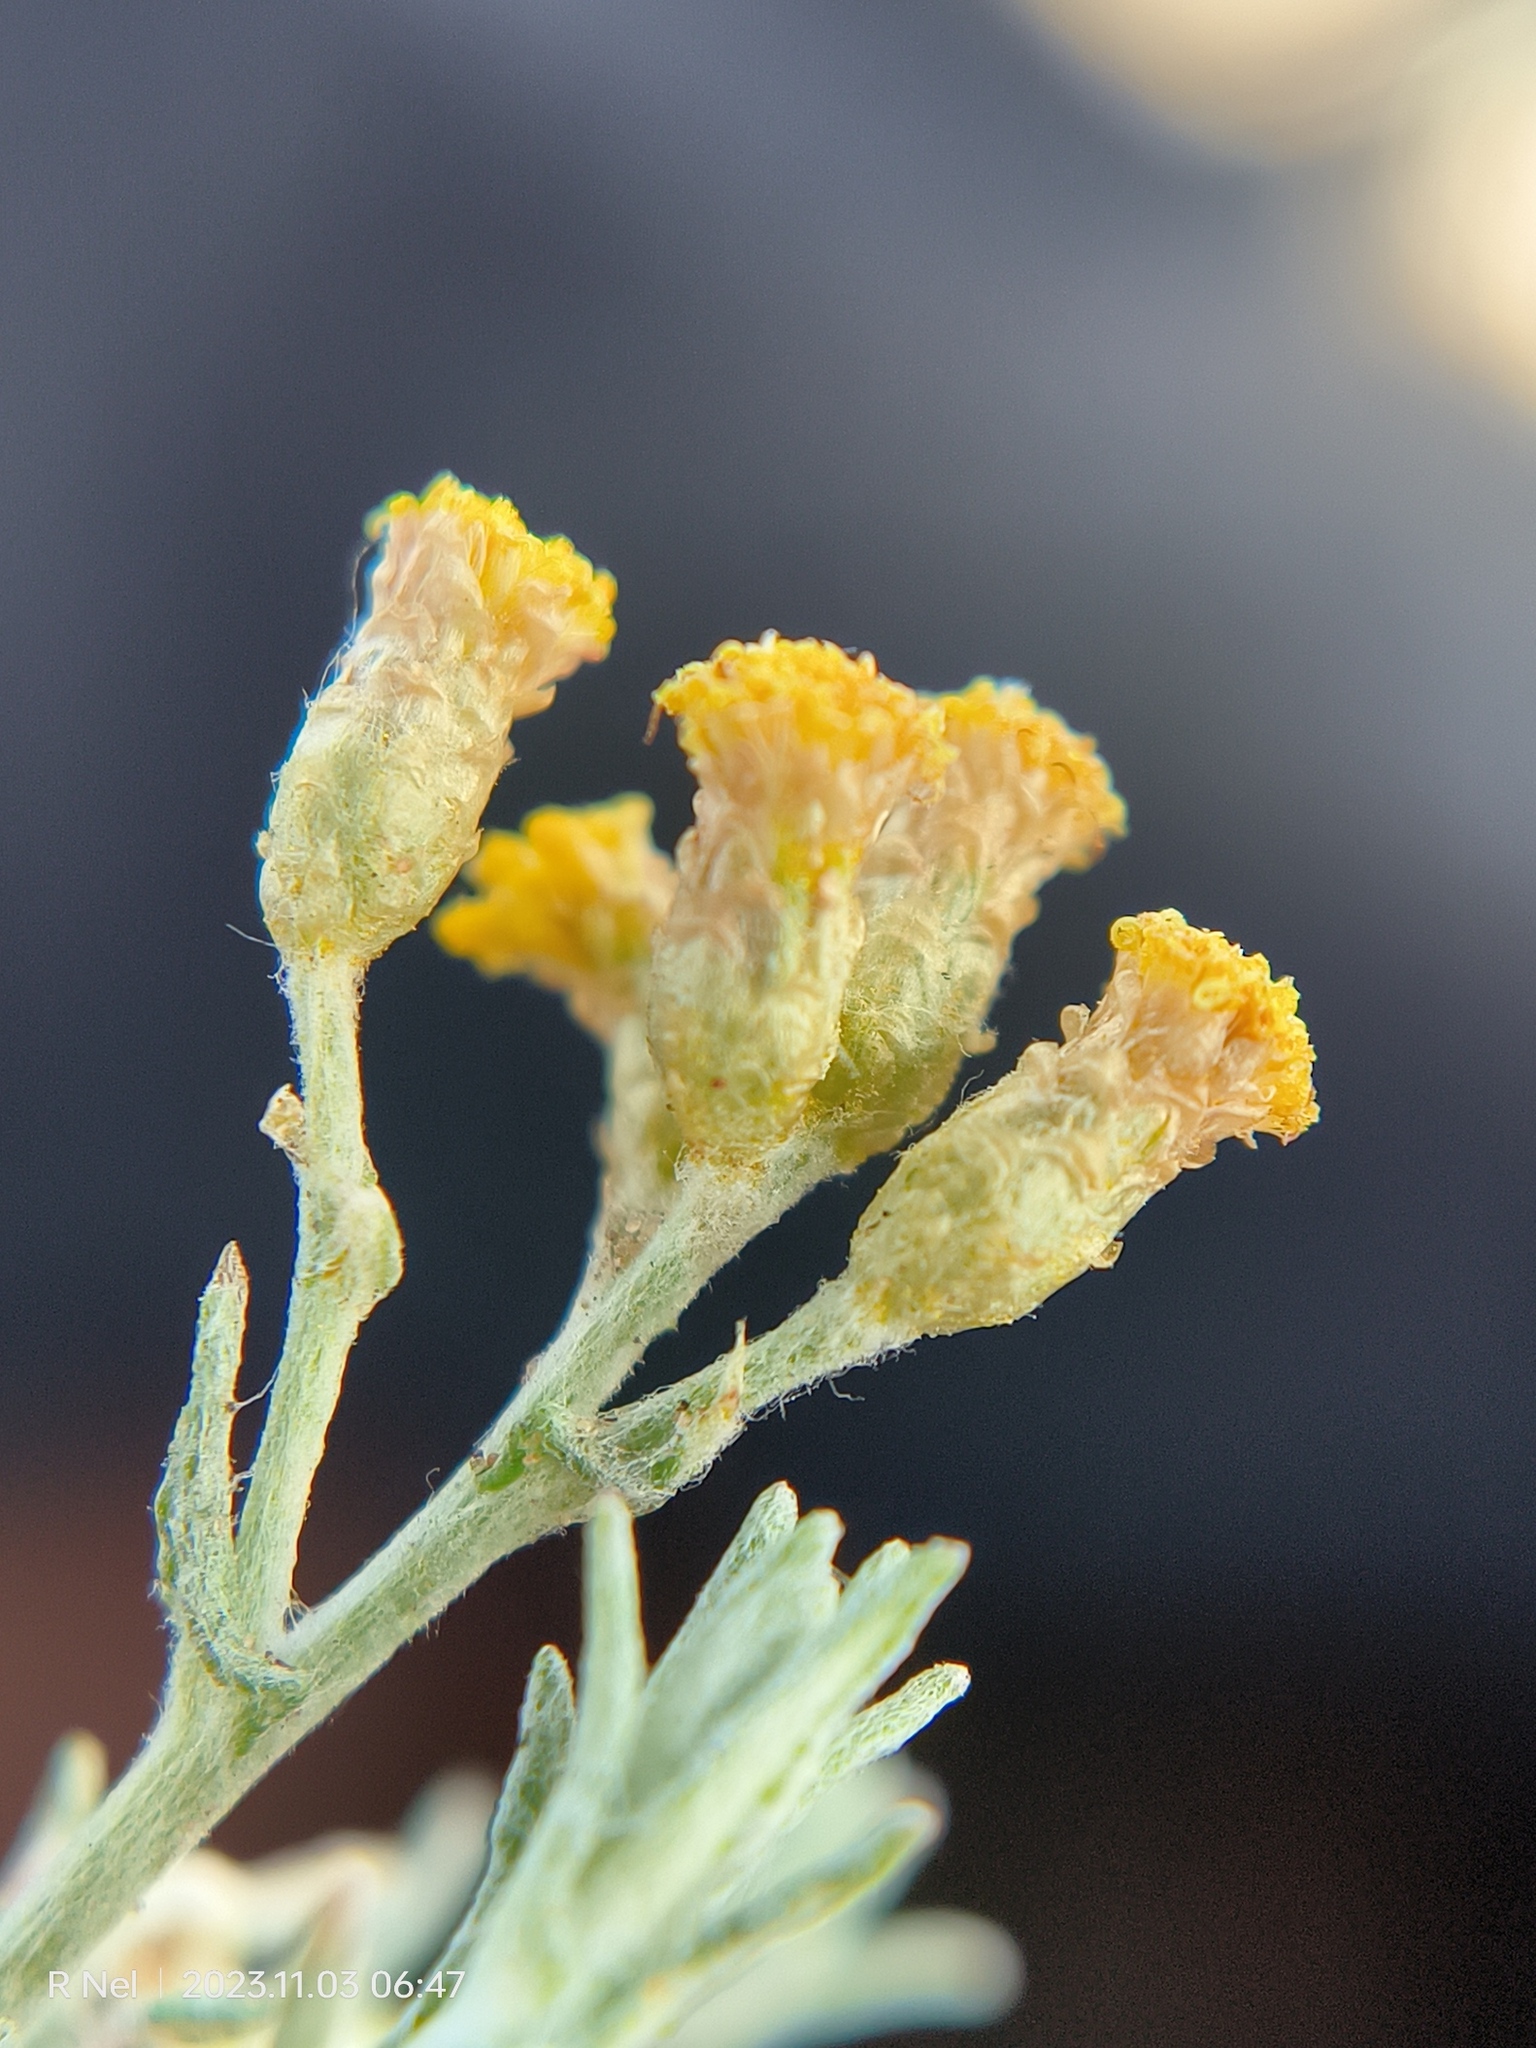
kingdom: Plantae
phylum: Tracheophyta
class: Magnoliopsida
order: Asterales
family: Asteraceae
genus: Helichrysum
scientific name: Helichrysum dregeanum
